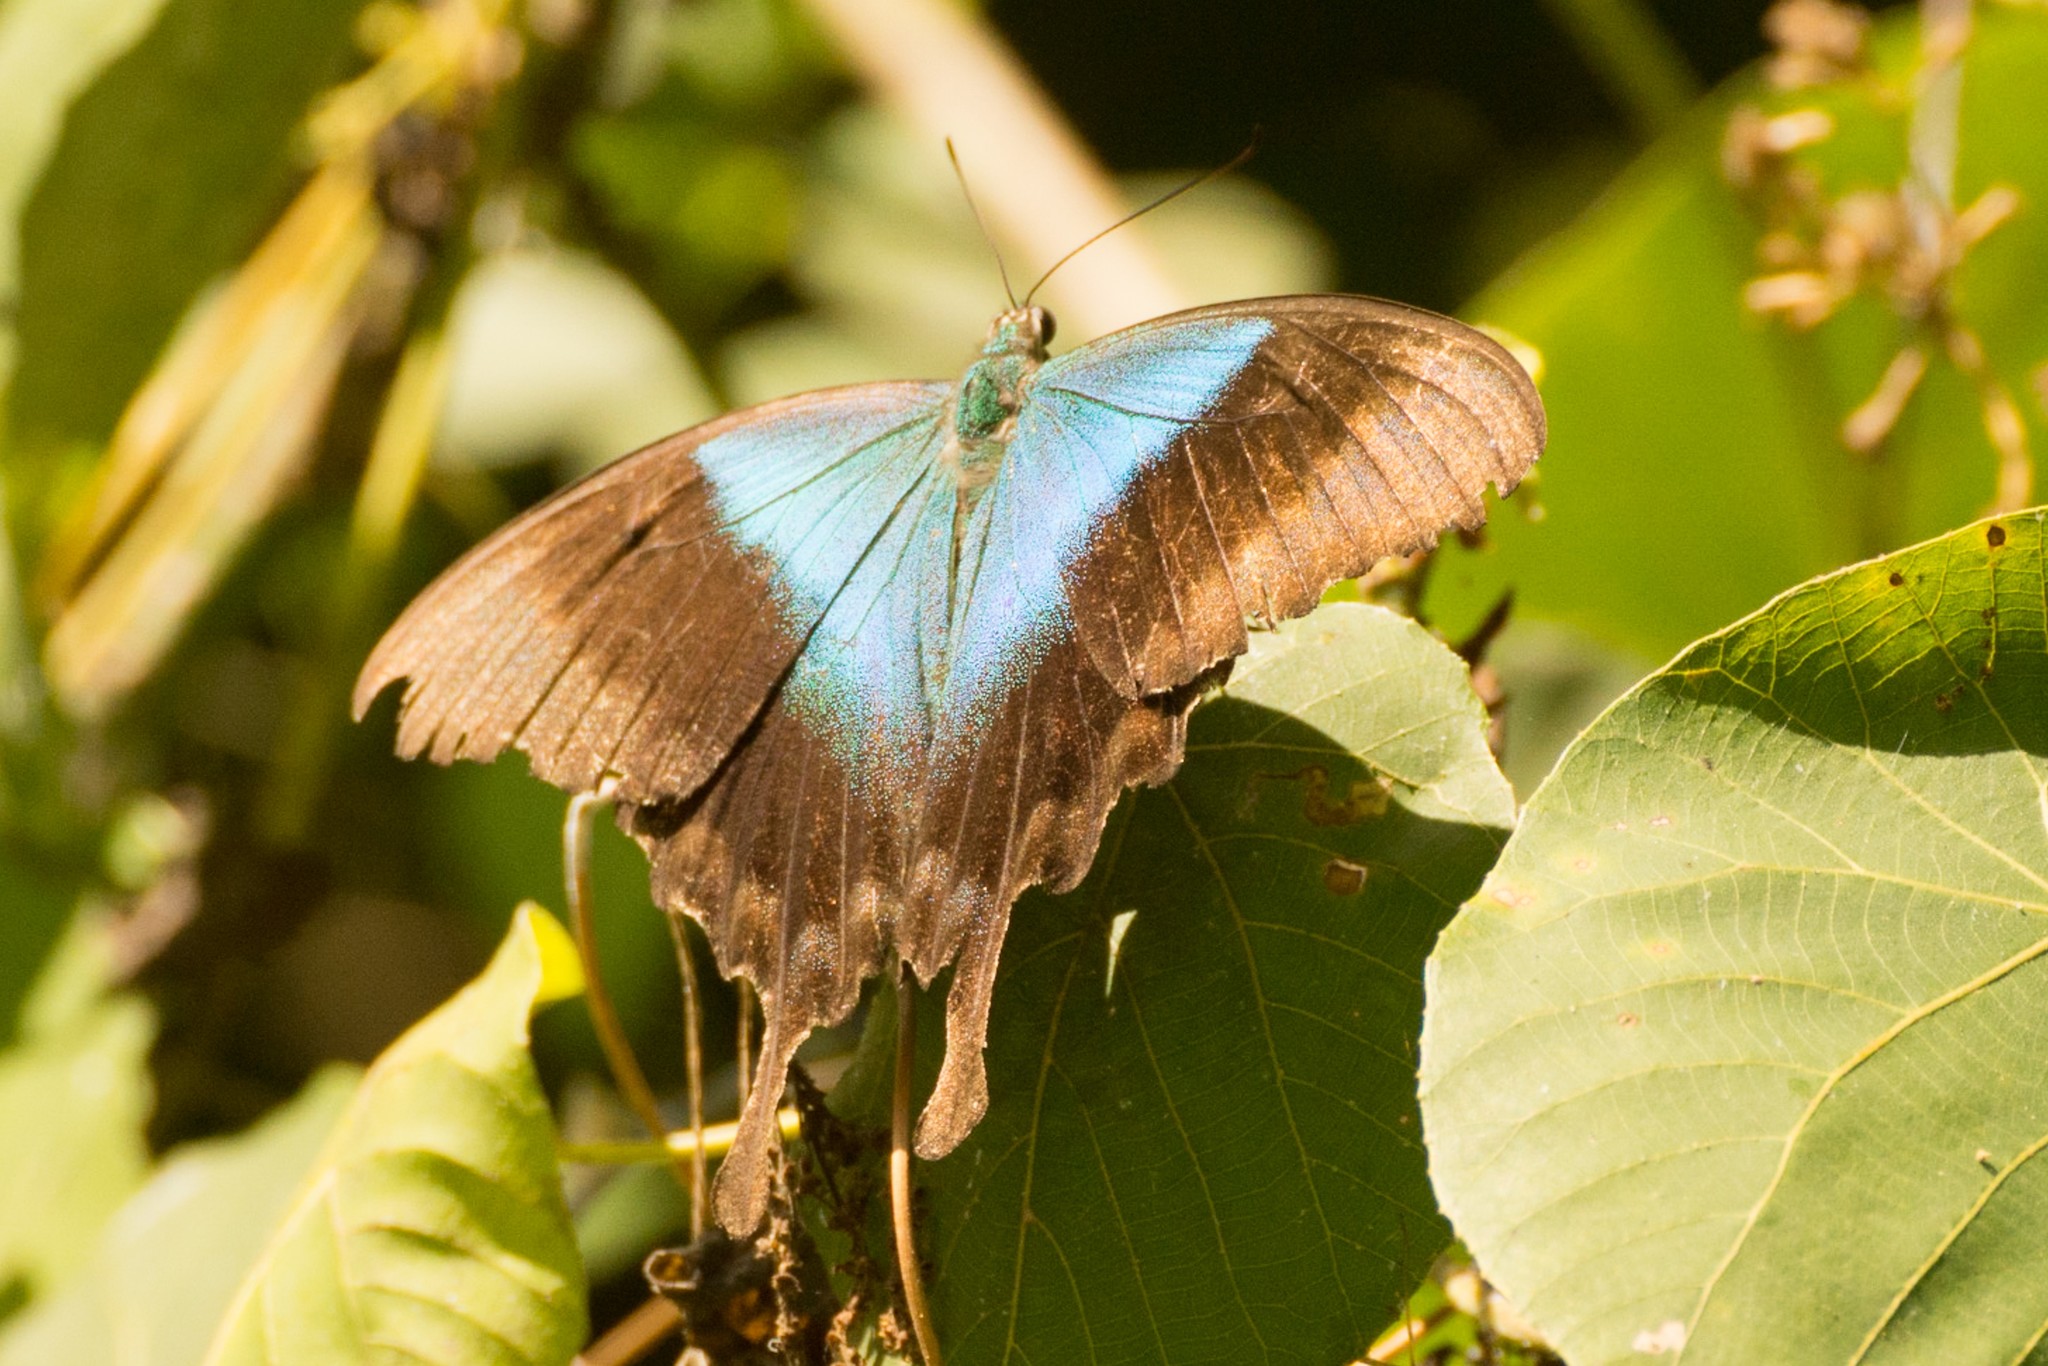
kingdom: Animalia
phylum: Arthropoda
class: Insecta
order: Lepidoptera
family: Papilionidae
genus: Papilio
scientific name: Papilio peranthus
